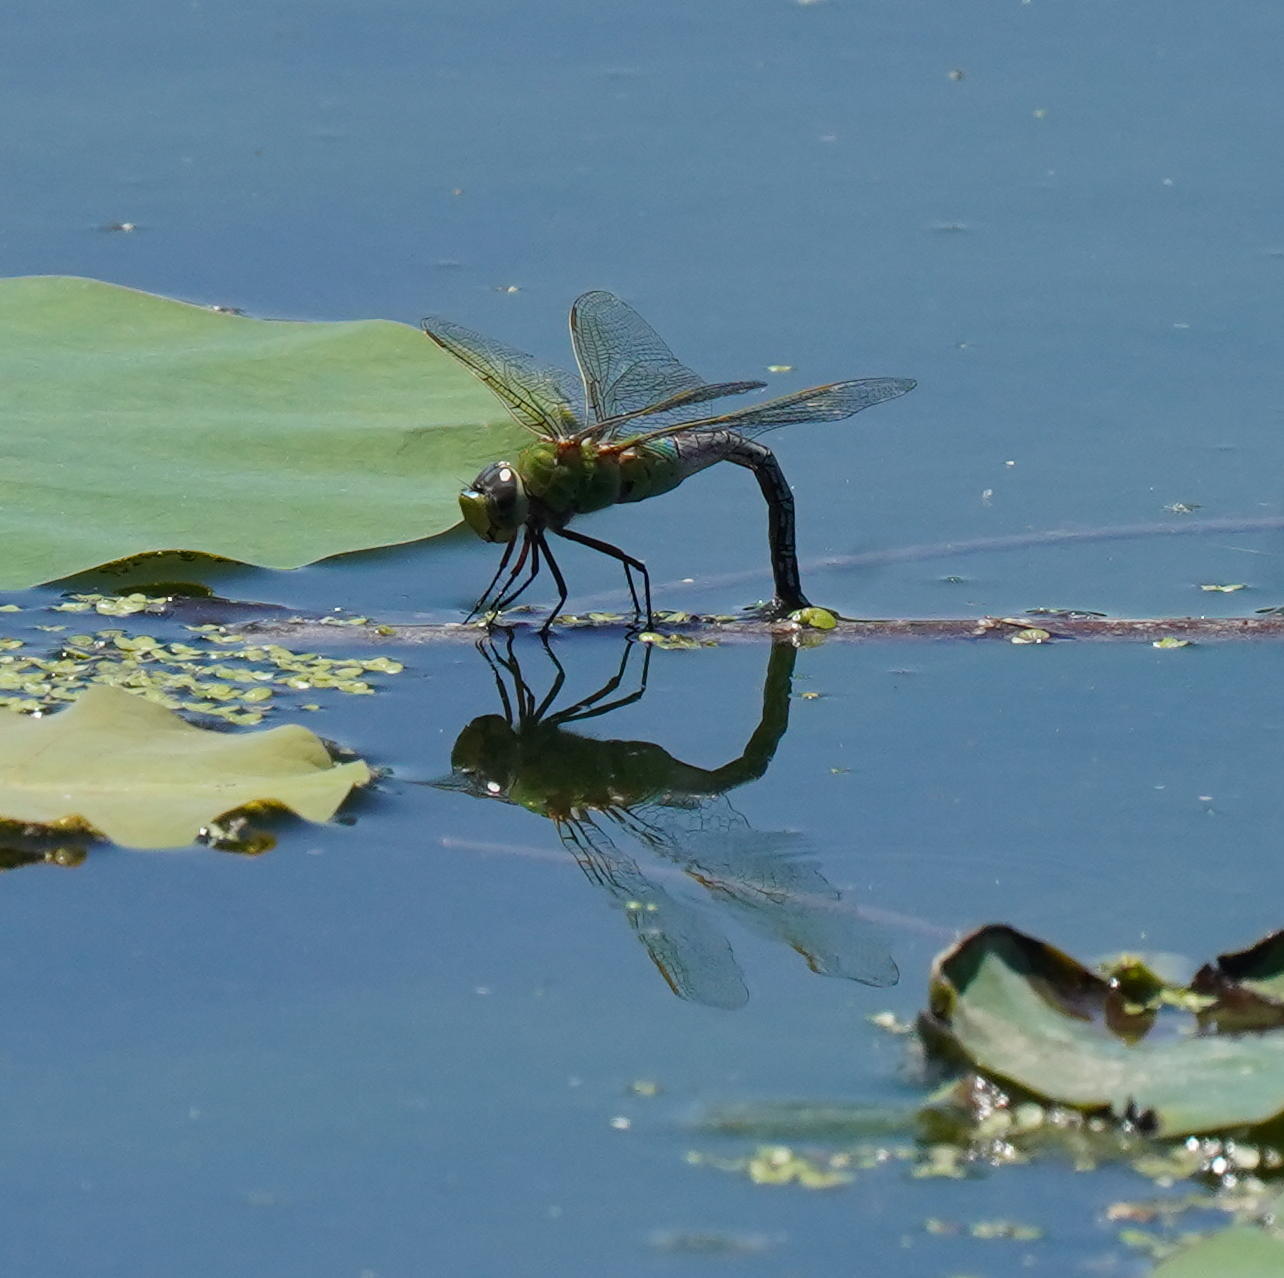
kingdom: Animalia
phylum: Arthropoda
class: Insecta
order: Odonata
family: Aeshnidae
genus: Anax
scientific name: Anax junius
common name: Common green darner
